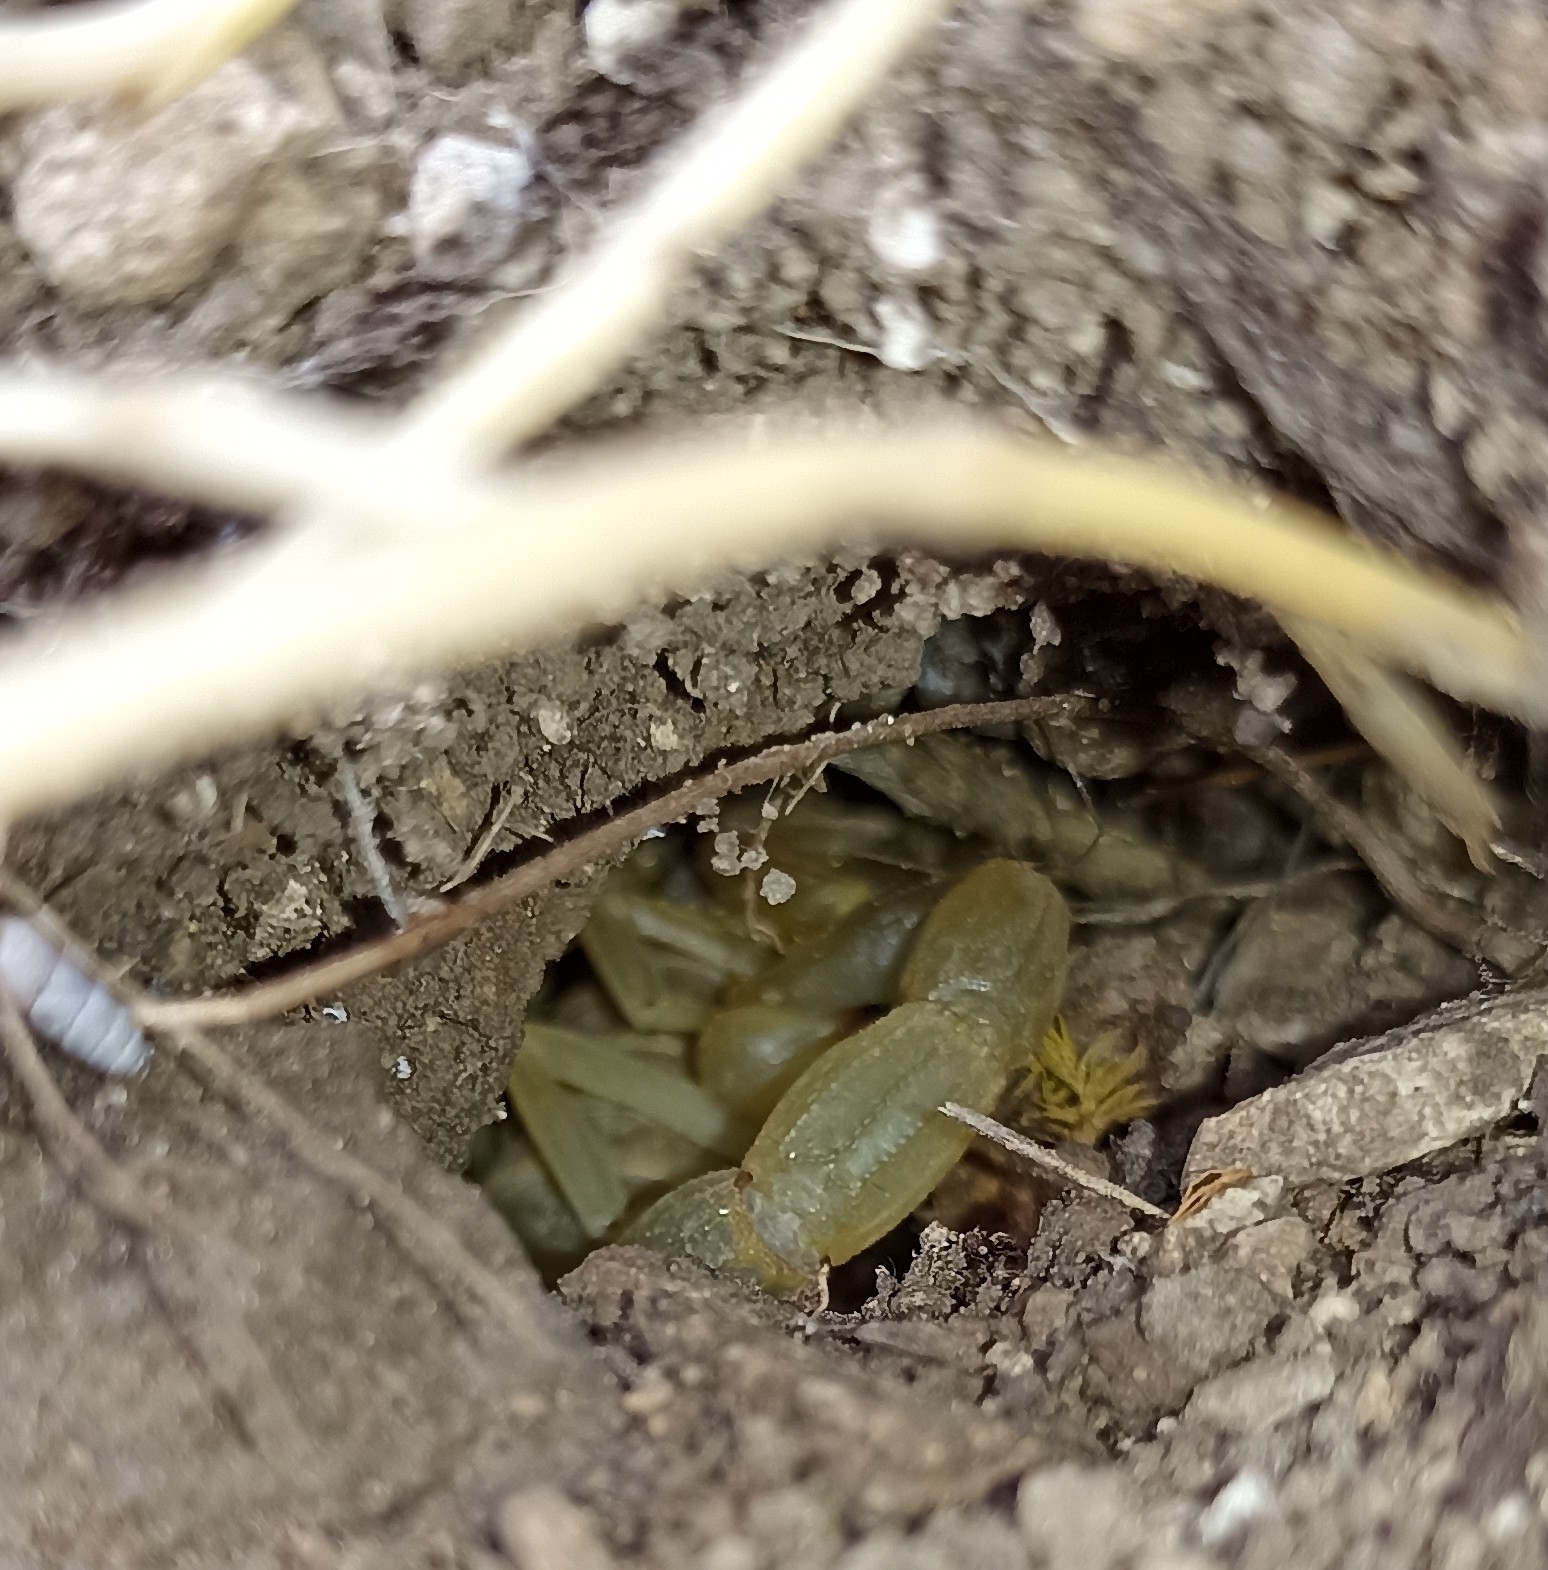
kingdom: Animalia
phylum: Arthropoda
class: Arachnida
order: Scorpiones
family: Buthidae
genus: Buthus
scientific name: Buthus occitanus
